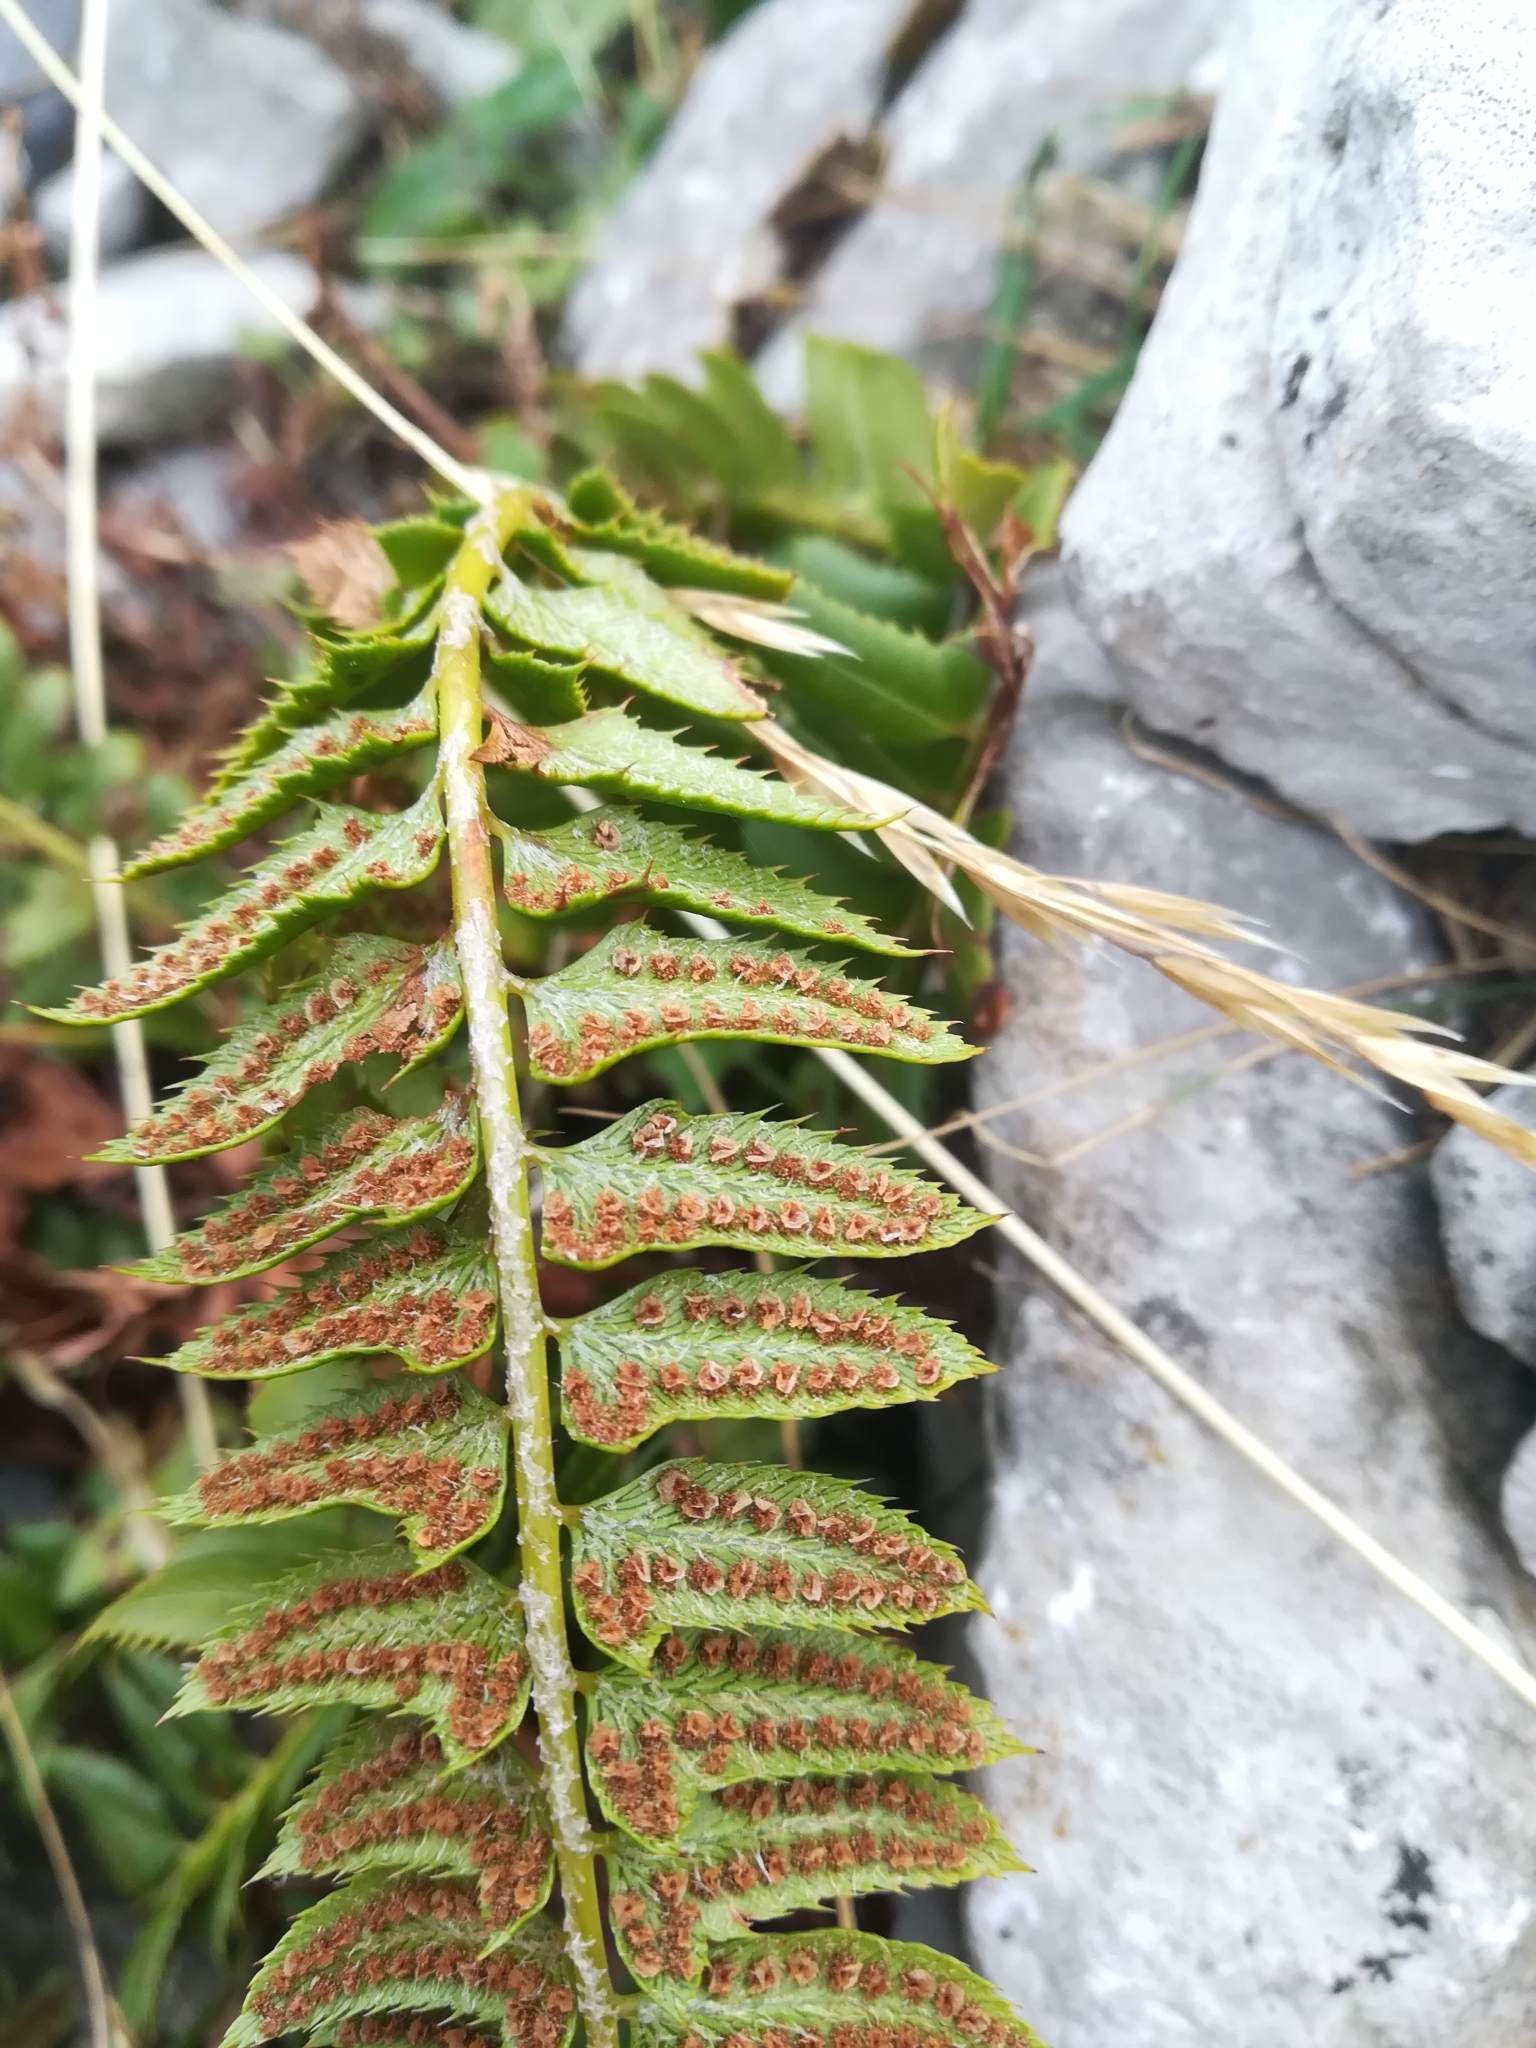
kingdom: Plantae
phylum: Tracheophyta
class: Polypodiopsida
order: Polypodiales
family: Dryopteridaceae
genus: Polystichum
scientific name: Polystichum lonchitis
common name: Holly fern
